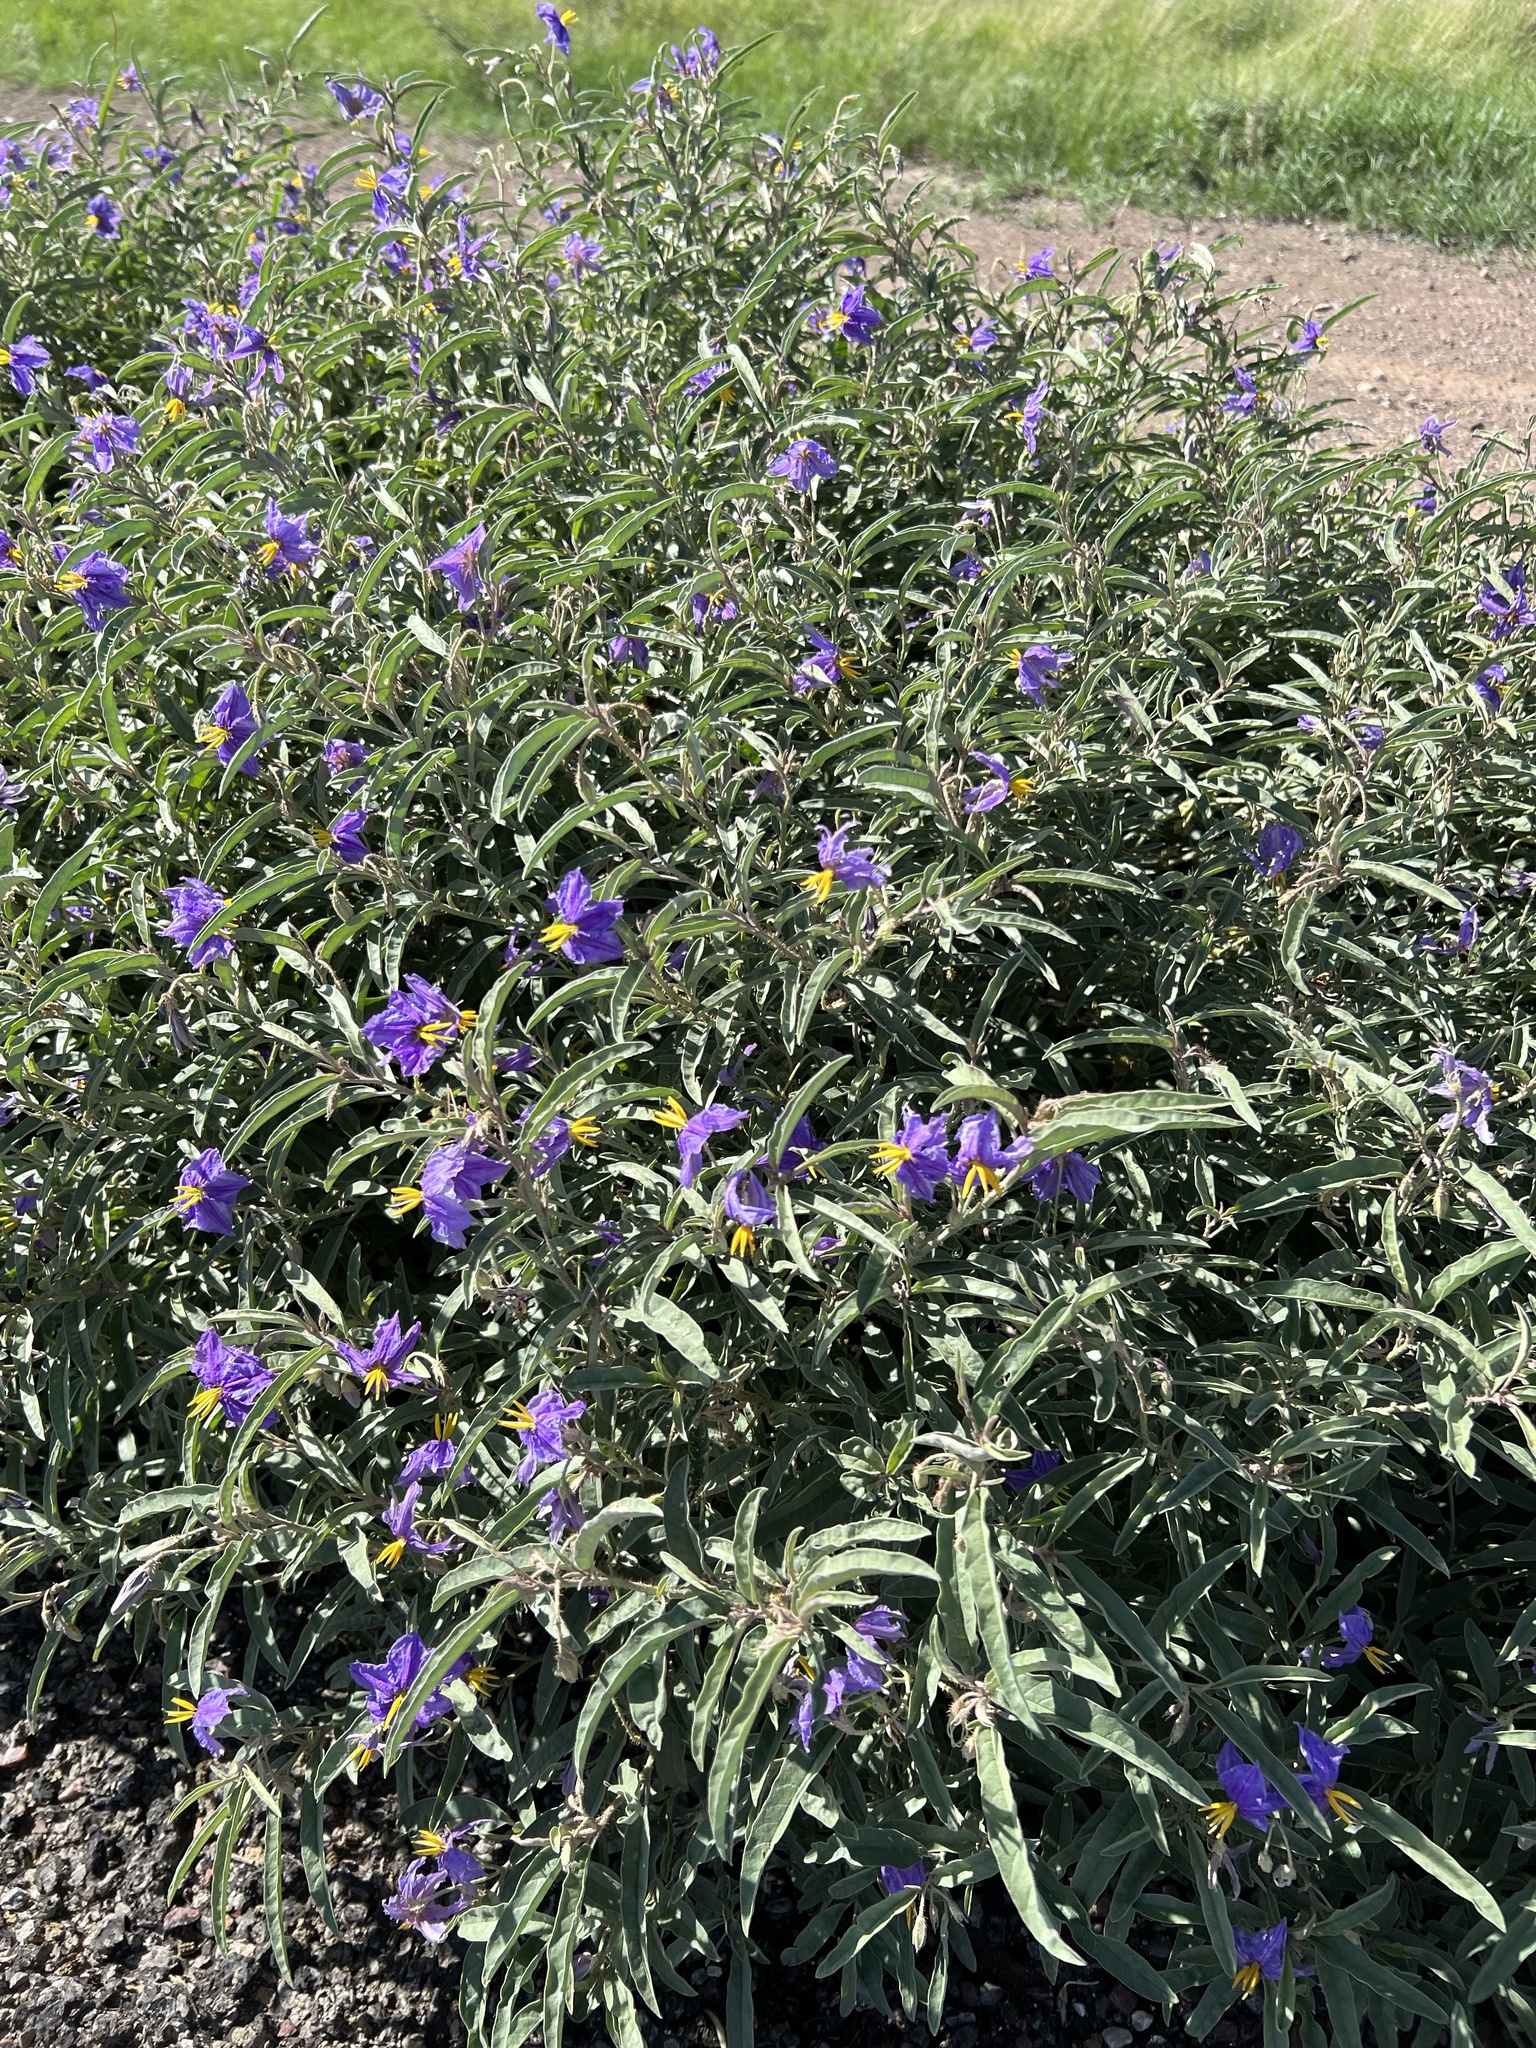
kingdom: Plantae
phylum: Tracheophyta
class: Magnoliopsida
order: Solanales
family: Solanaceae
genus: Solanum
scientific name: Solanum elaeagnifolium
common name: Silverleaf nightshade
